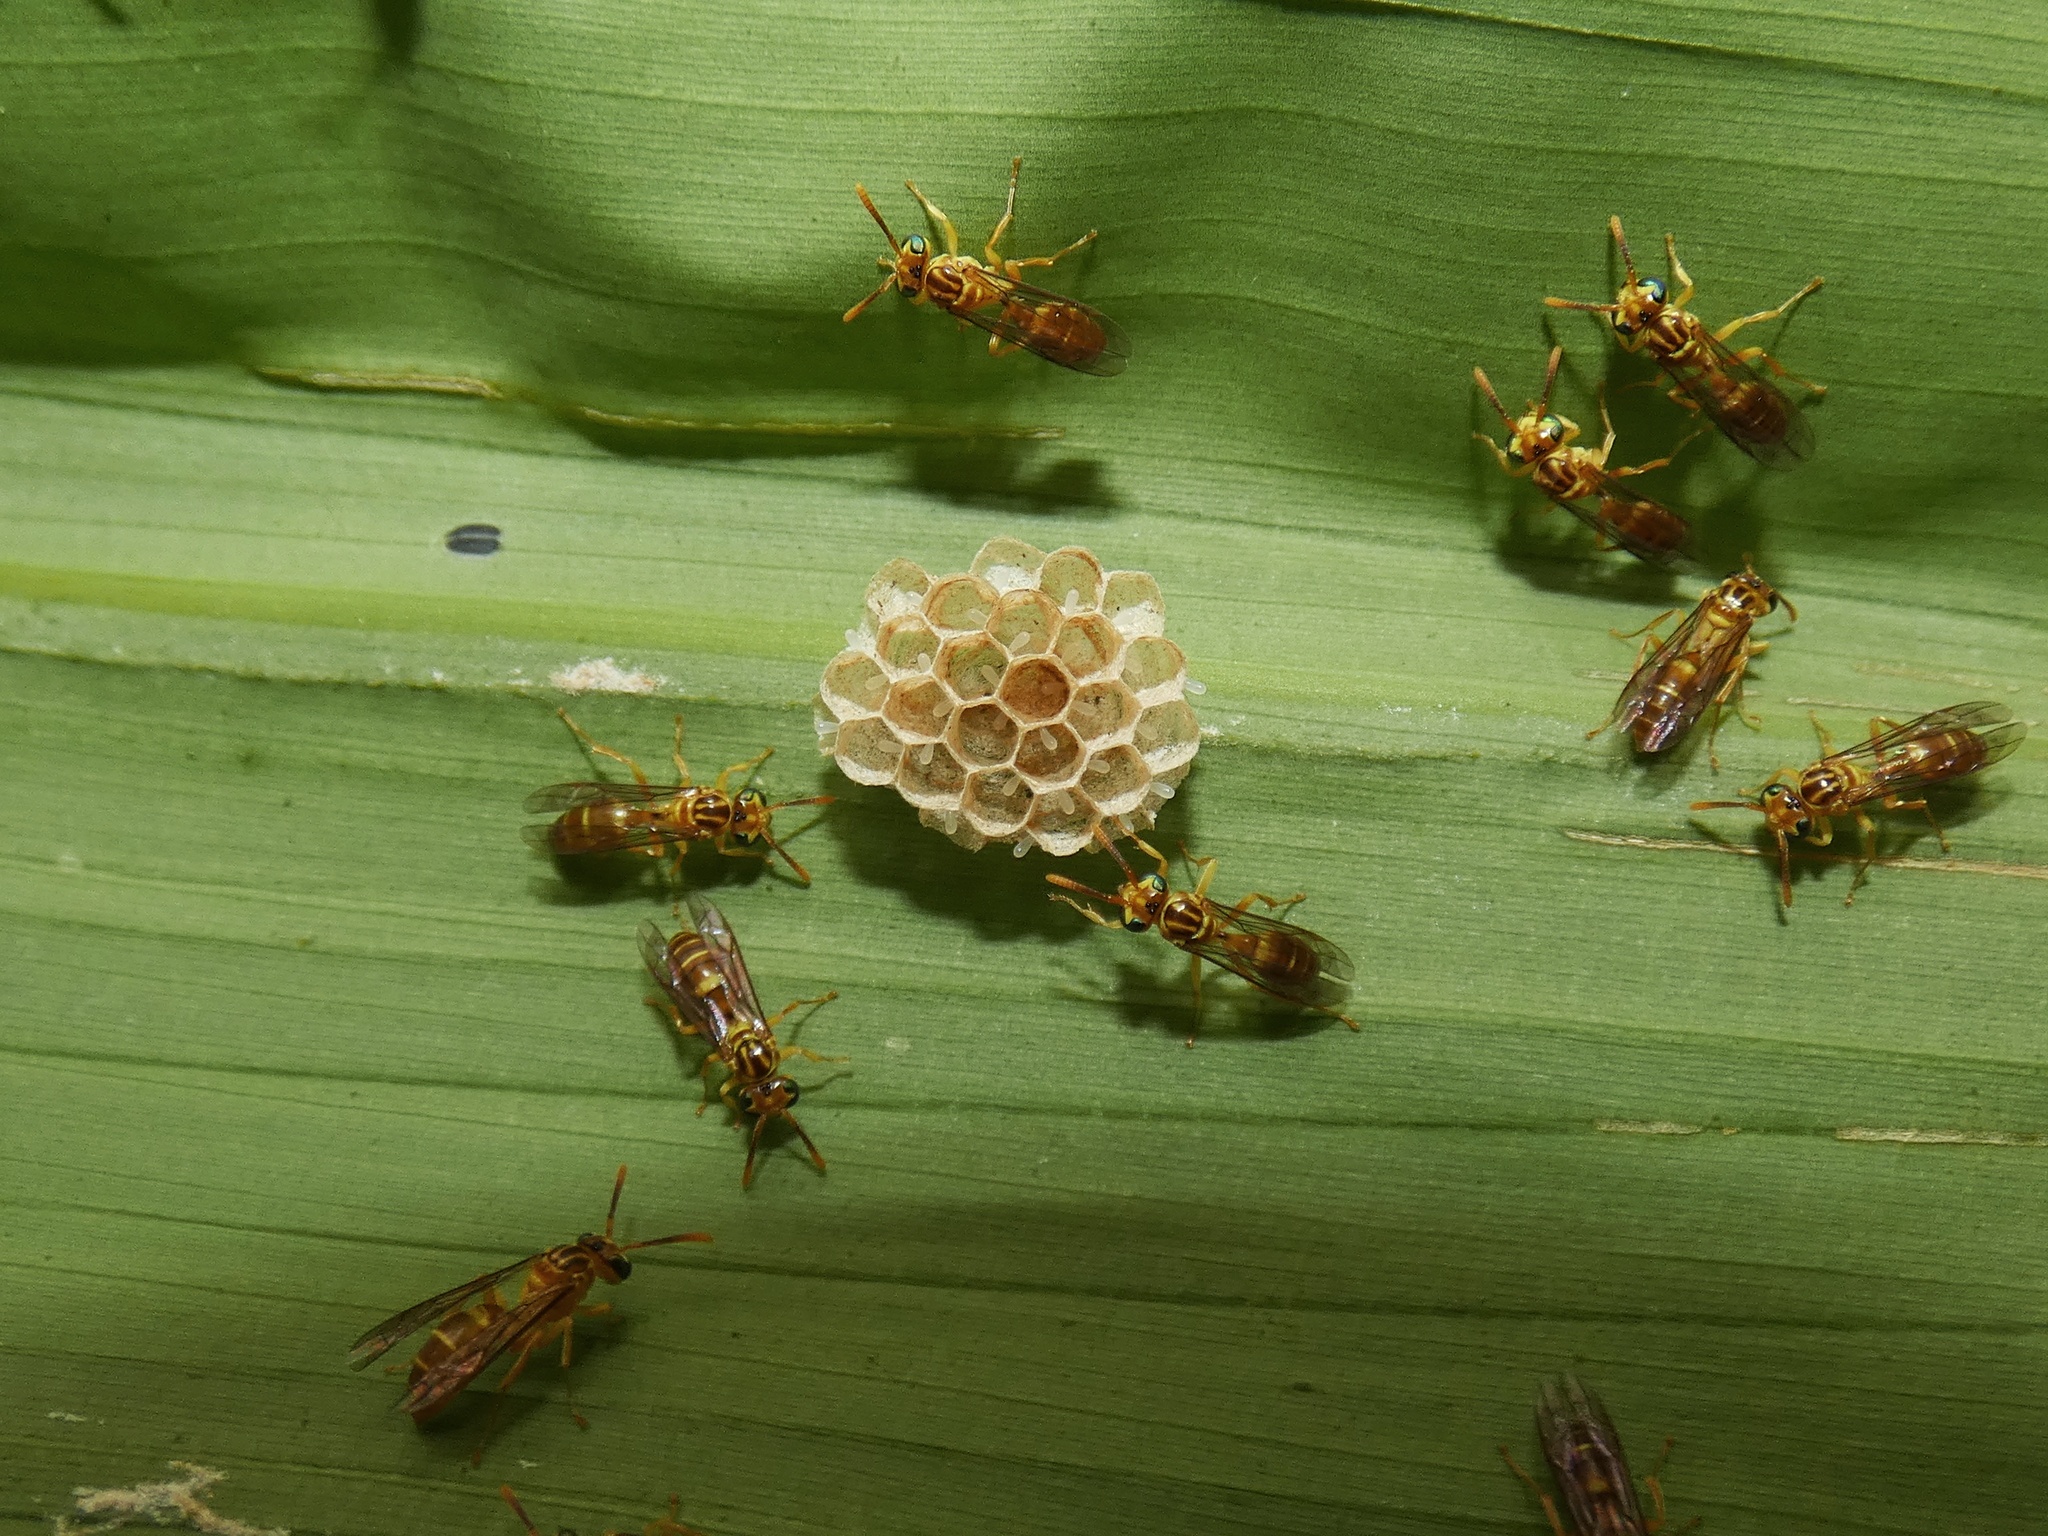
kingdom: Animalia
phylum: Arthropoda
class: Insecta
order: Hymenoptera
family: Vespidae
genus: Leipomeles
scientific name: Leipomeles dorsata
